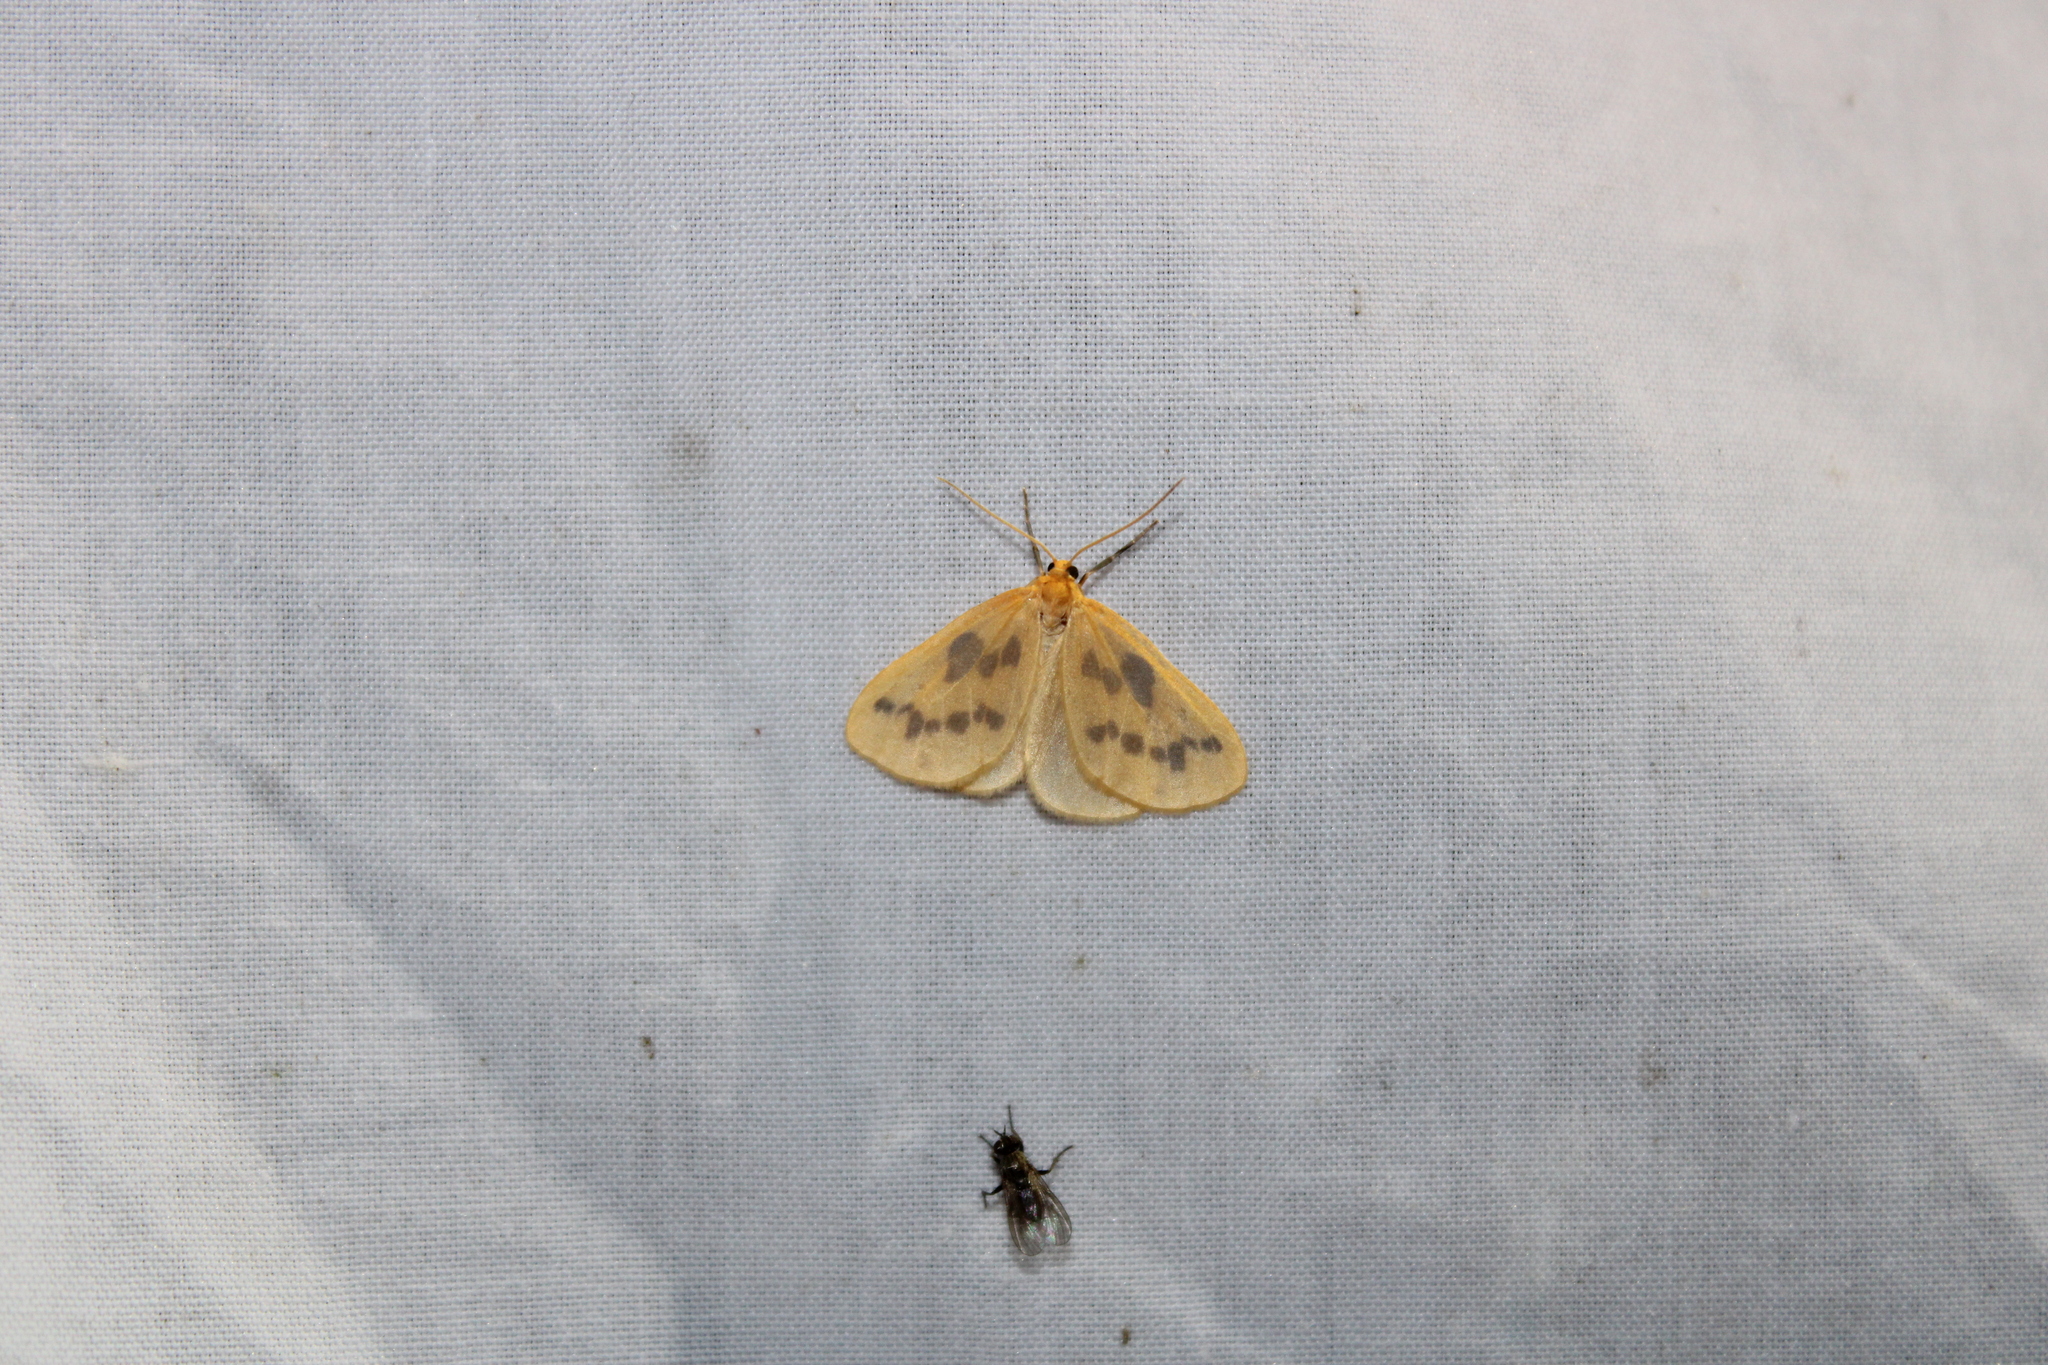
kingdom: Animalia
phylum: Arthropoda
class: Insecta
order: Lepidoptera
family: Geometridae
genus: Eubaphe
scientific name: Eubaphe mendica
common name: Beggar
